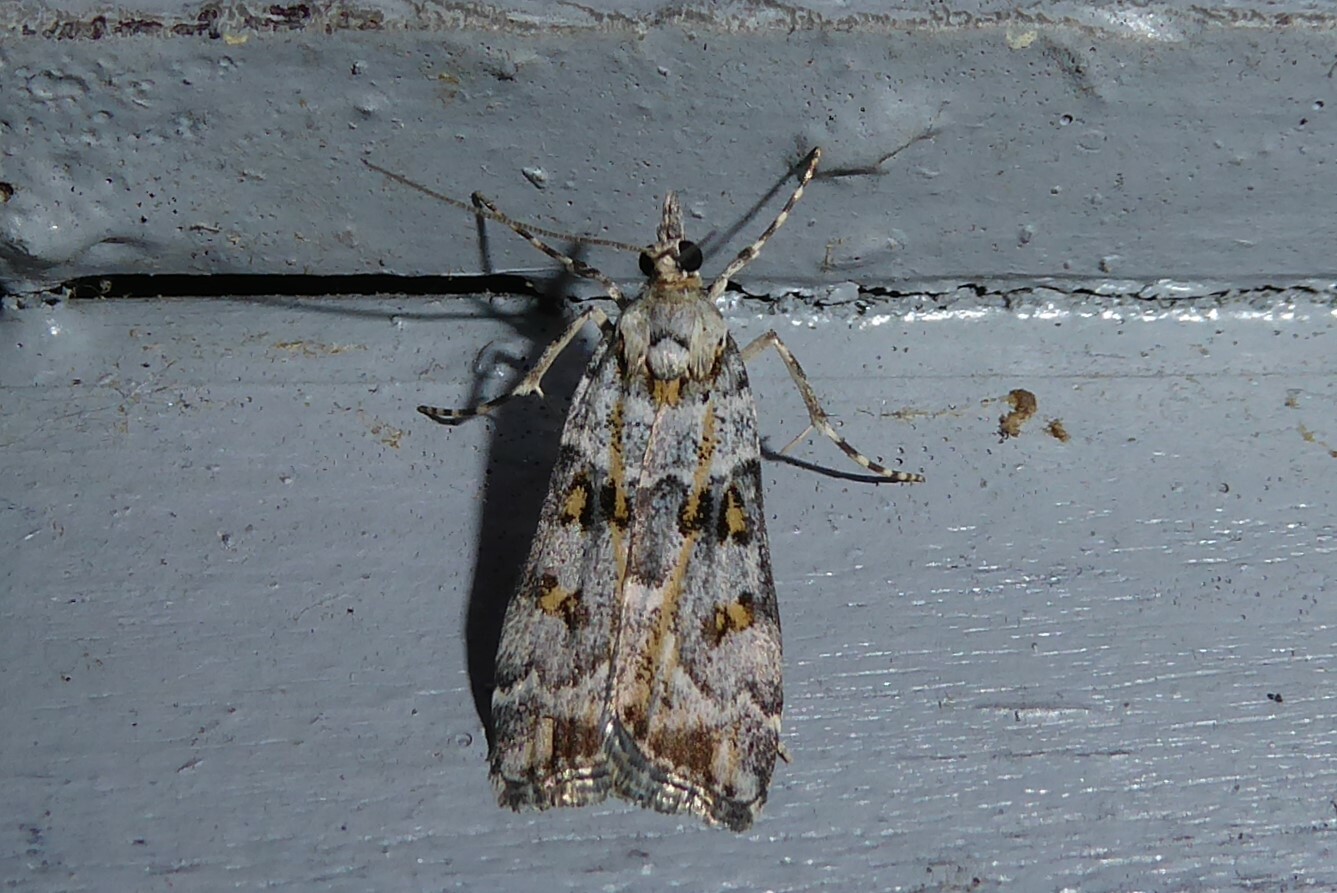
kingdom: Animalia
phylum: Arthropoda
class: Insecta
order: Lepidoptera
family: Crambidae
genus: Scoparia
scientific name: Scoparia tetracycla
